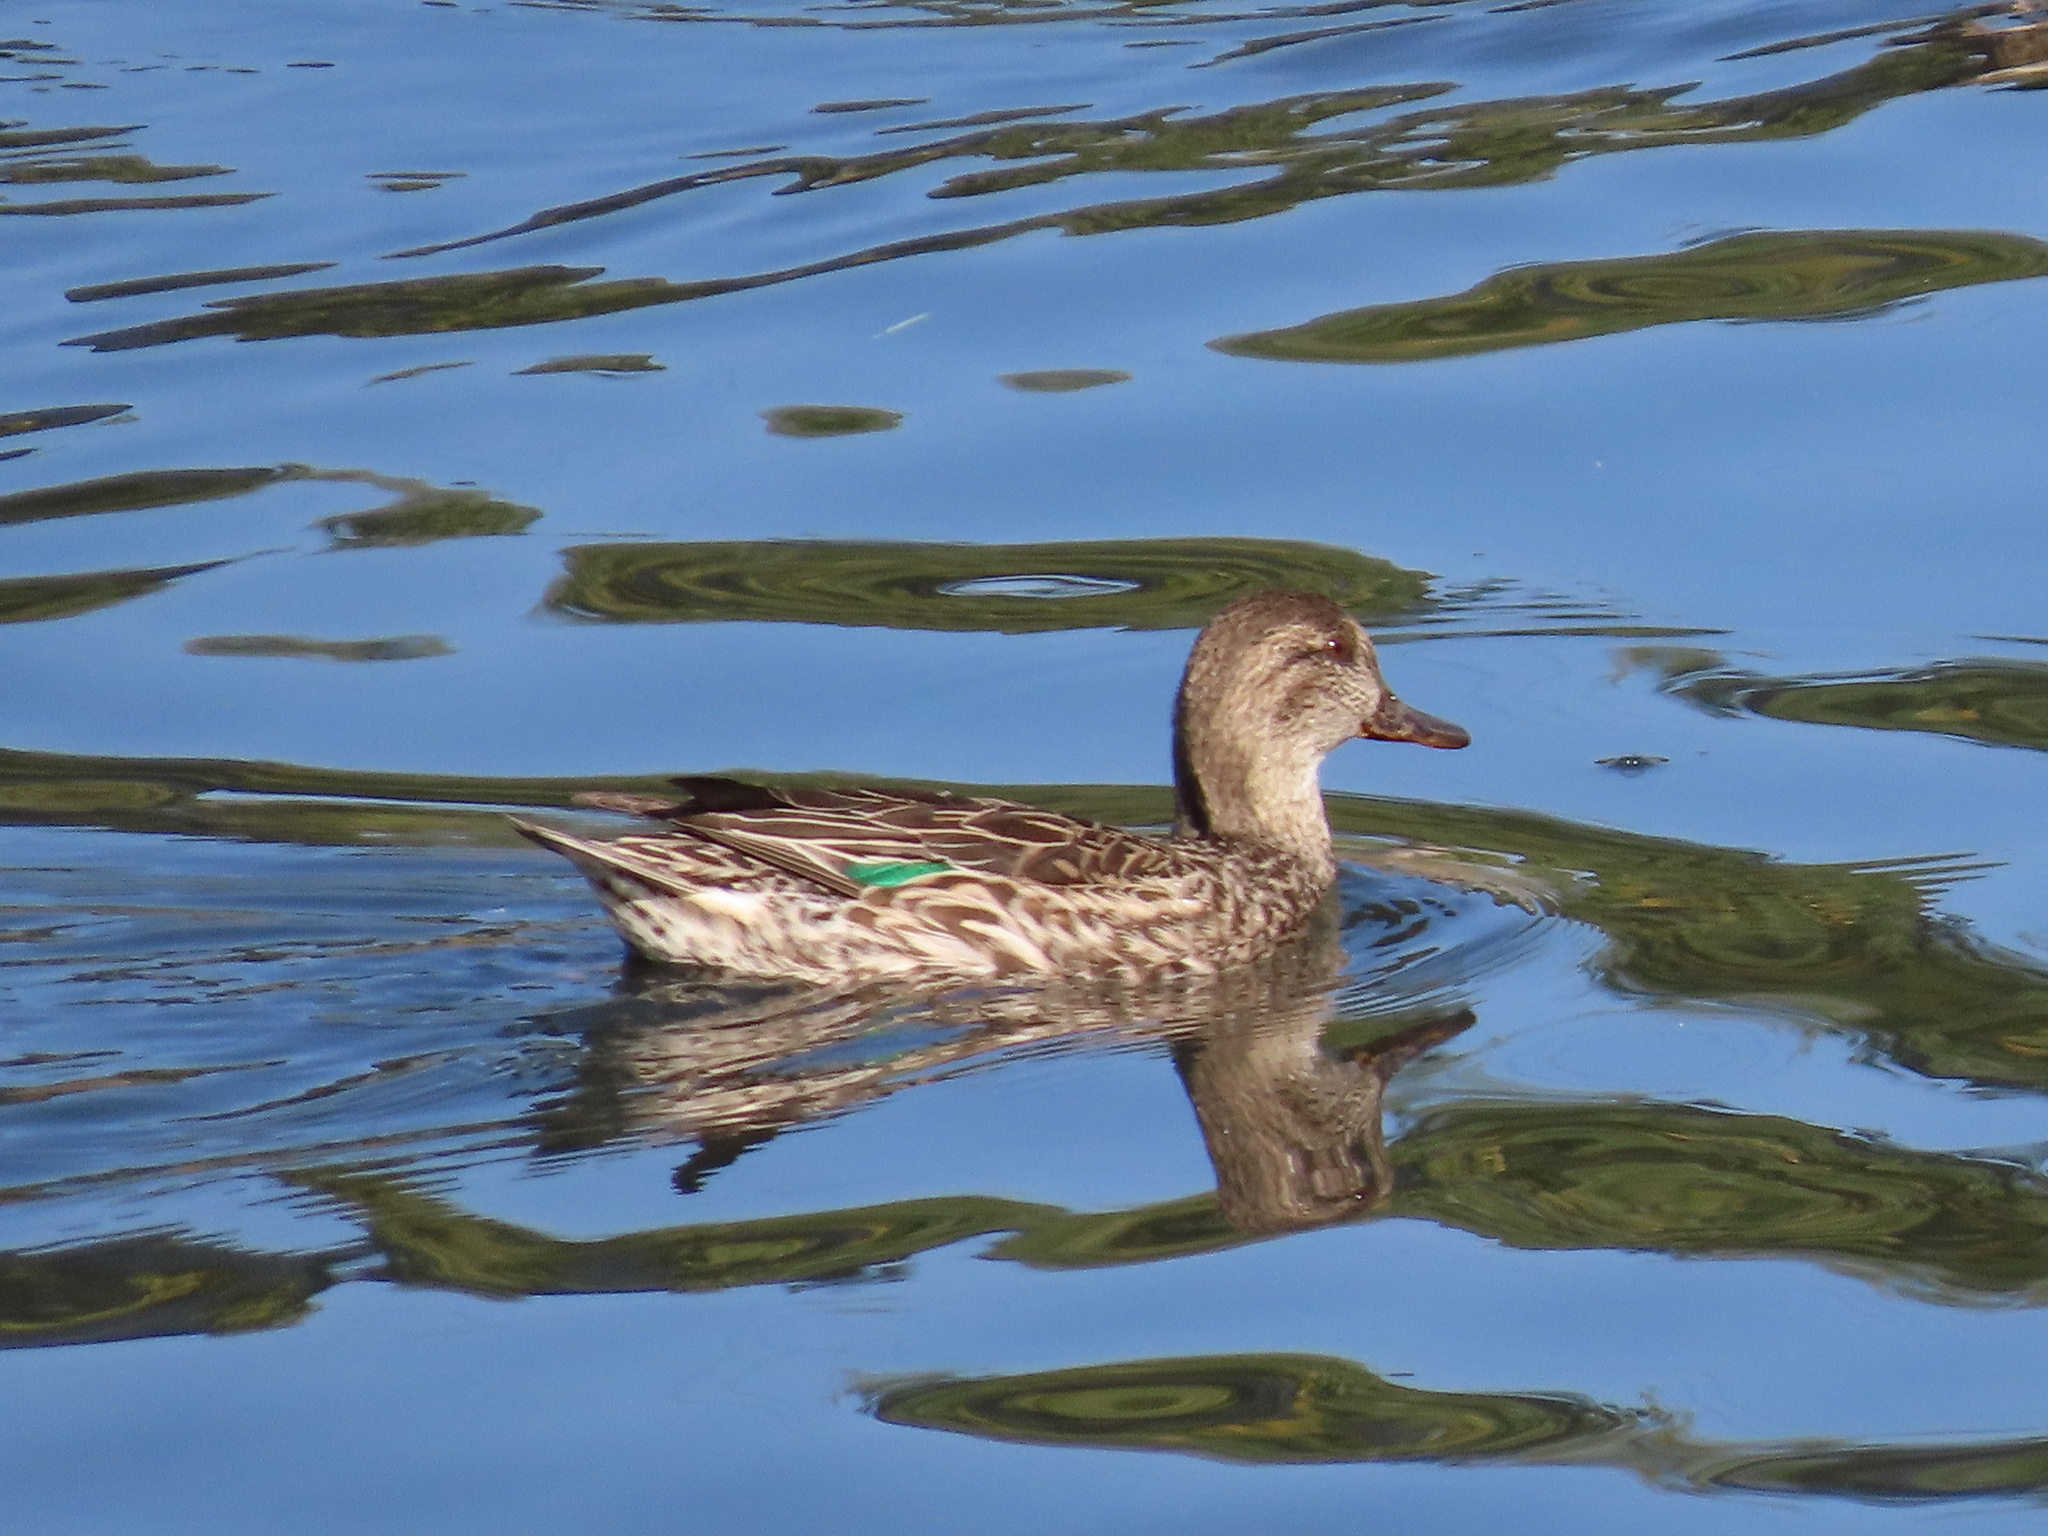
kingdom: Animalia
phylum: Chordata
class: Aves
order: Anseriformes
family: Anatidae
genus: Anas
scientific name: Anas crecca
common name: Eurasian teal
